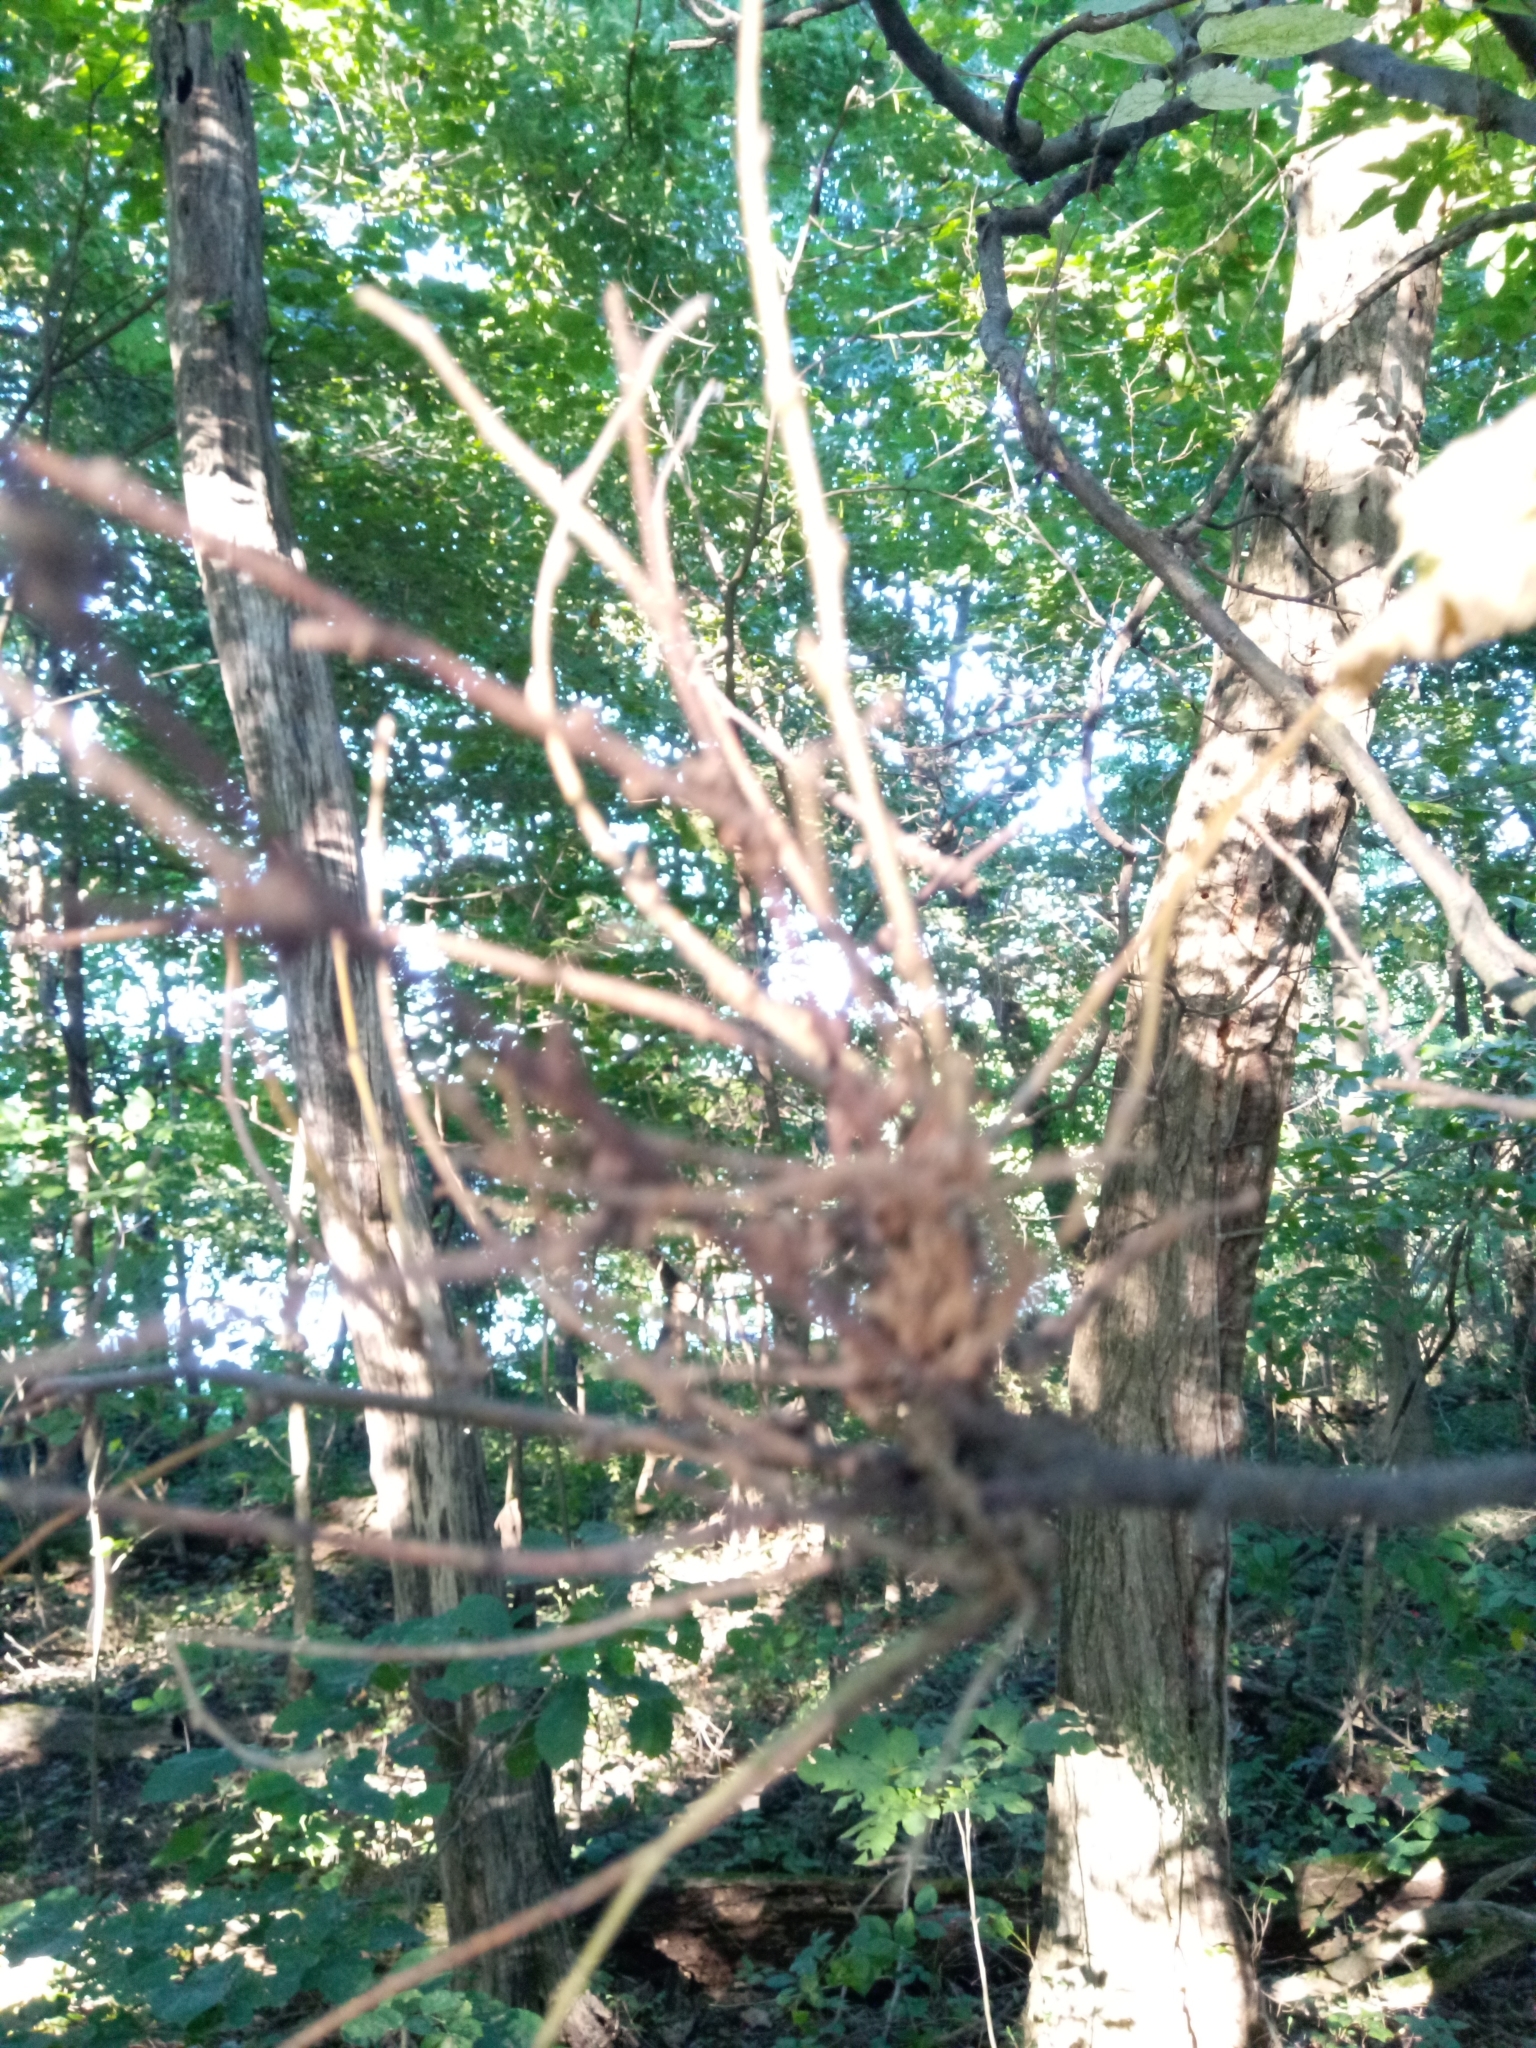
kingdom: Fungi
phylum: Ascomycota
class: Leotiomycetes
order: Helotiales
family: Erysiphaceae
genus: Podosphaera
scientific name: Podosphaera phytoptophila
